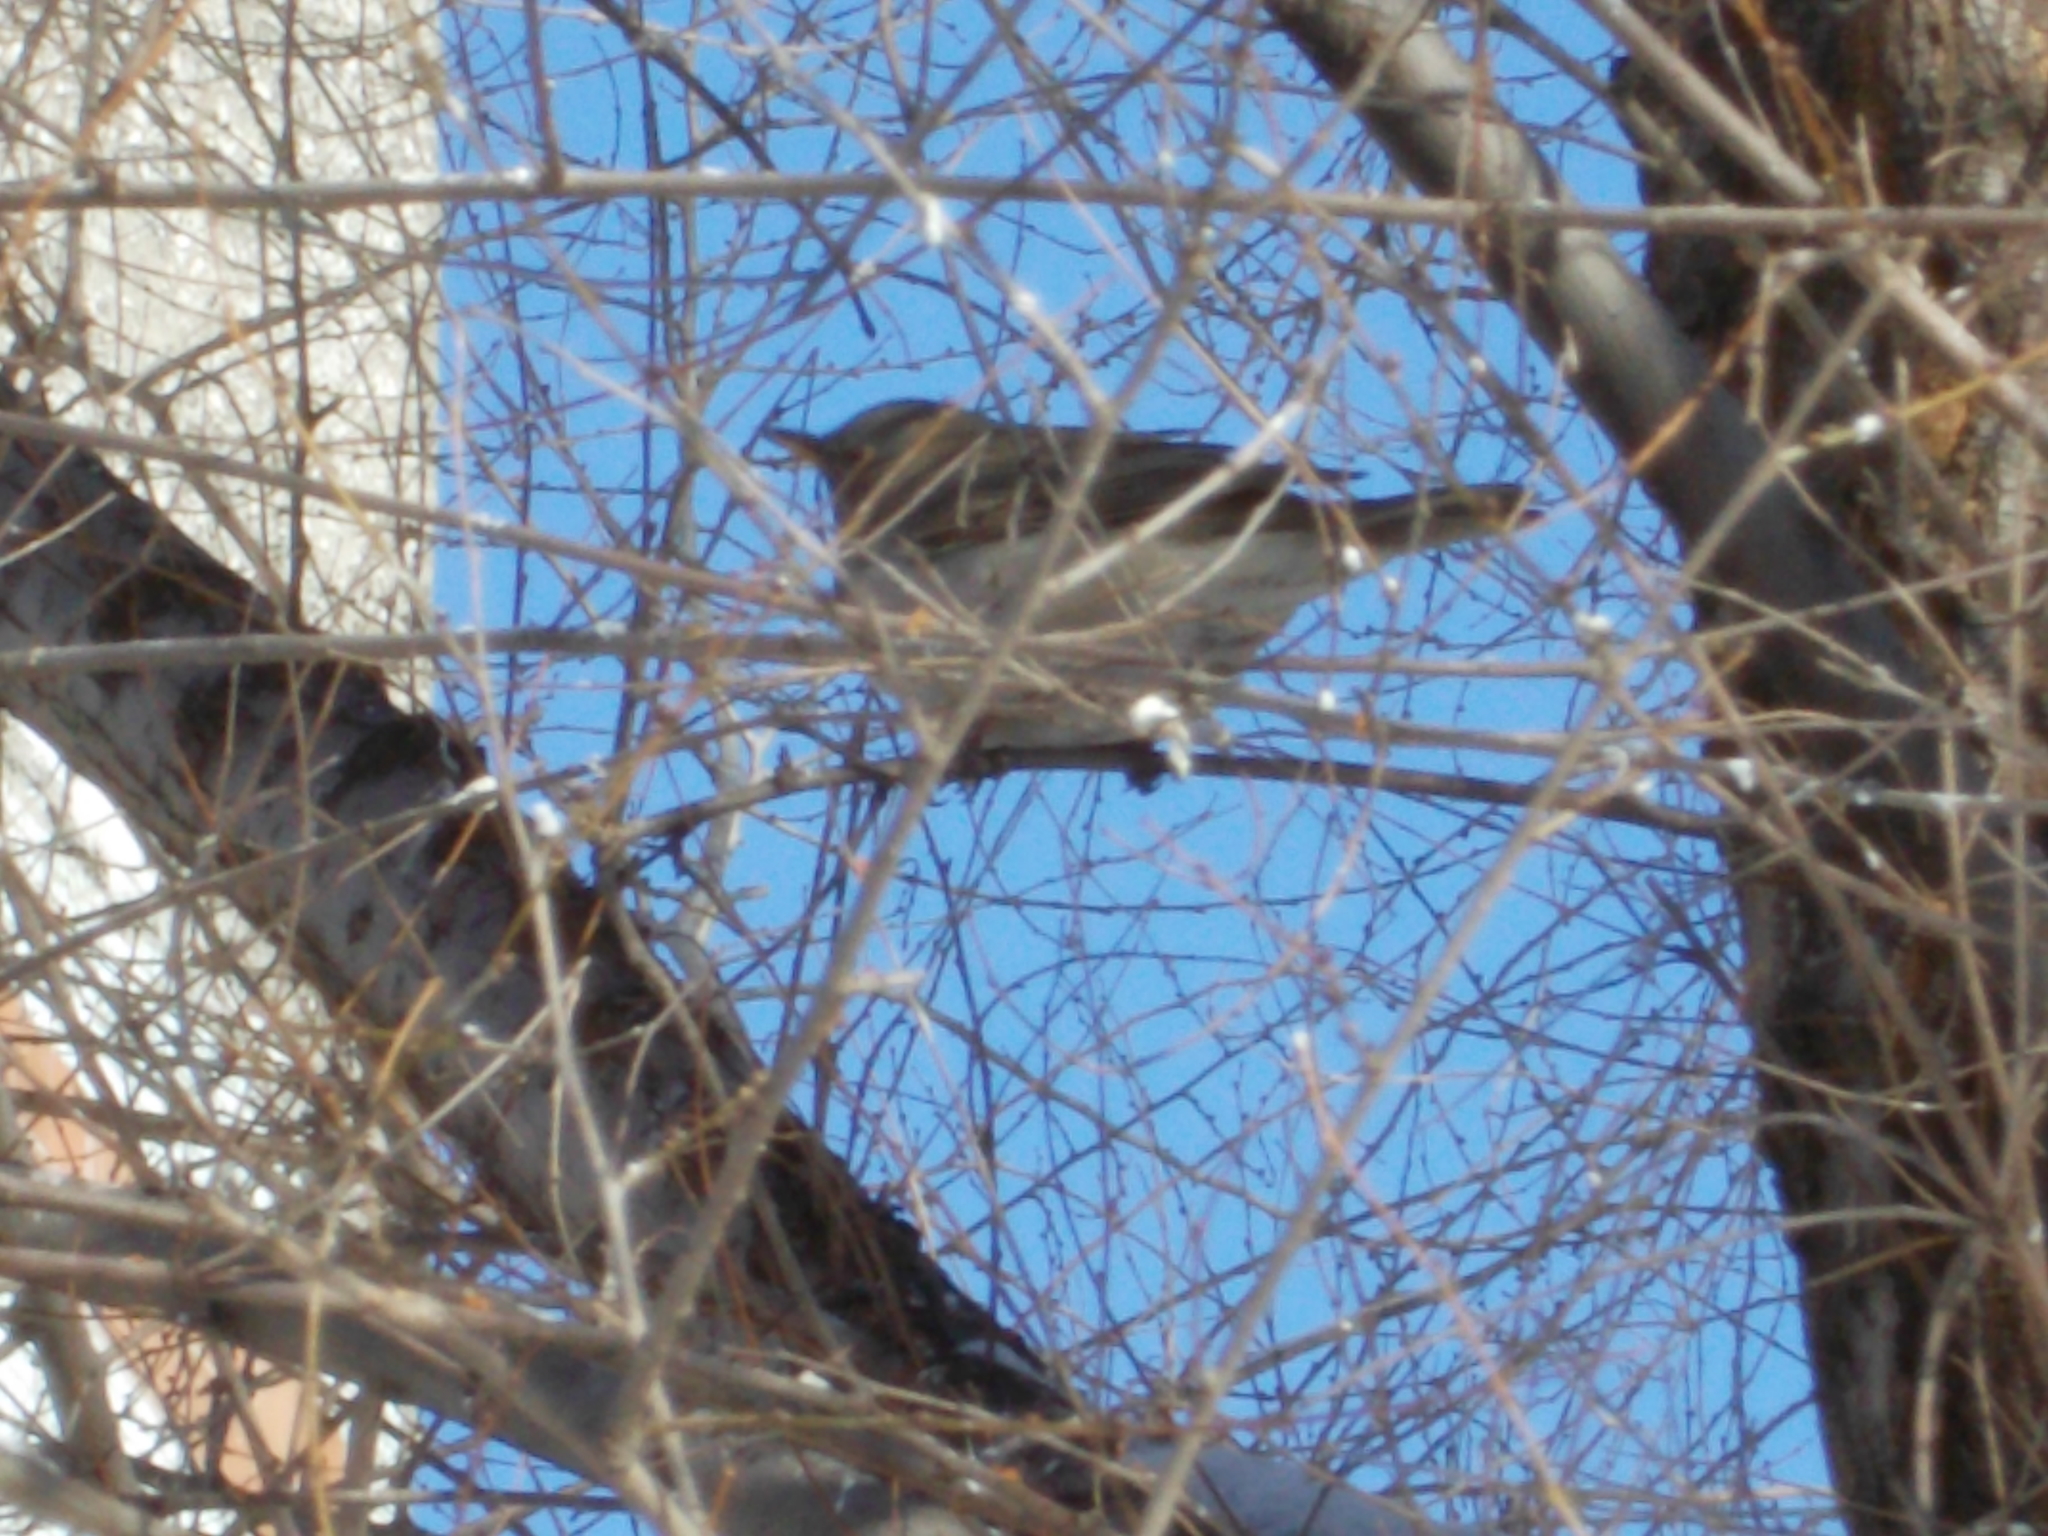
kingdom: Animalia
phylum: Chordata
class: Aves
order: Passeriformes
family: Turdidae
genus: Turdus
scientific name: Turdus atrogularis
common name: Black-throated thrush
